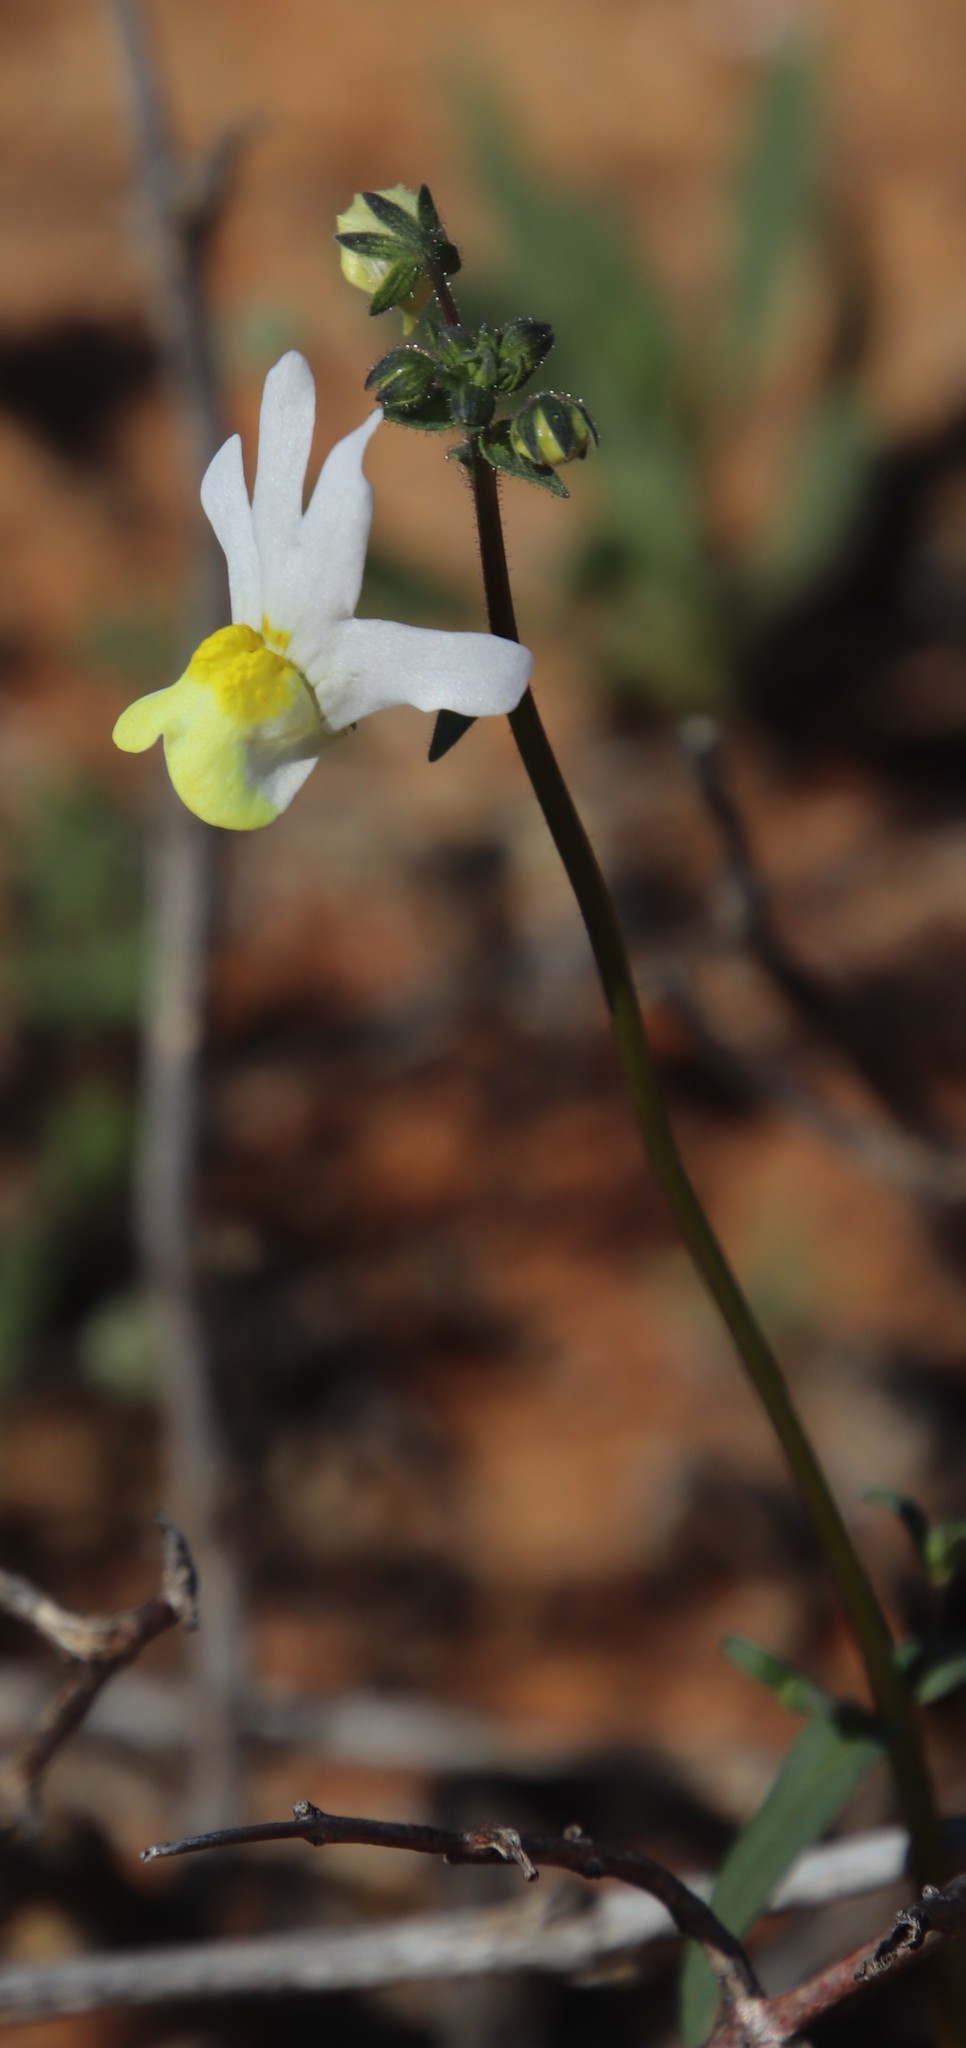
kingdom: Plantae
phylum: Tracheophyta
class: Magnoliopsida
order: Lamiales
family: Scrophulariaceae
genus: Nemesia
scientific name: Nemesia ligulata
